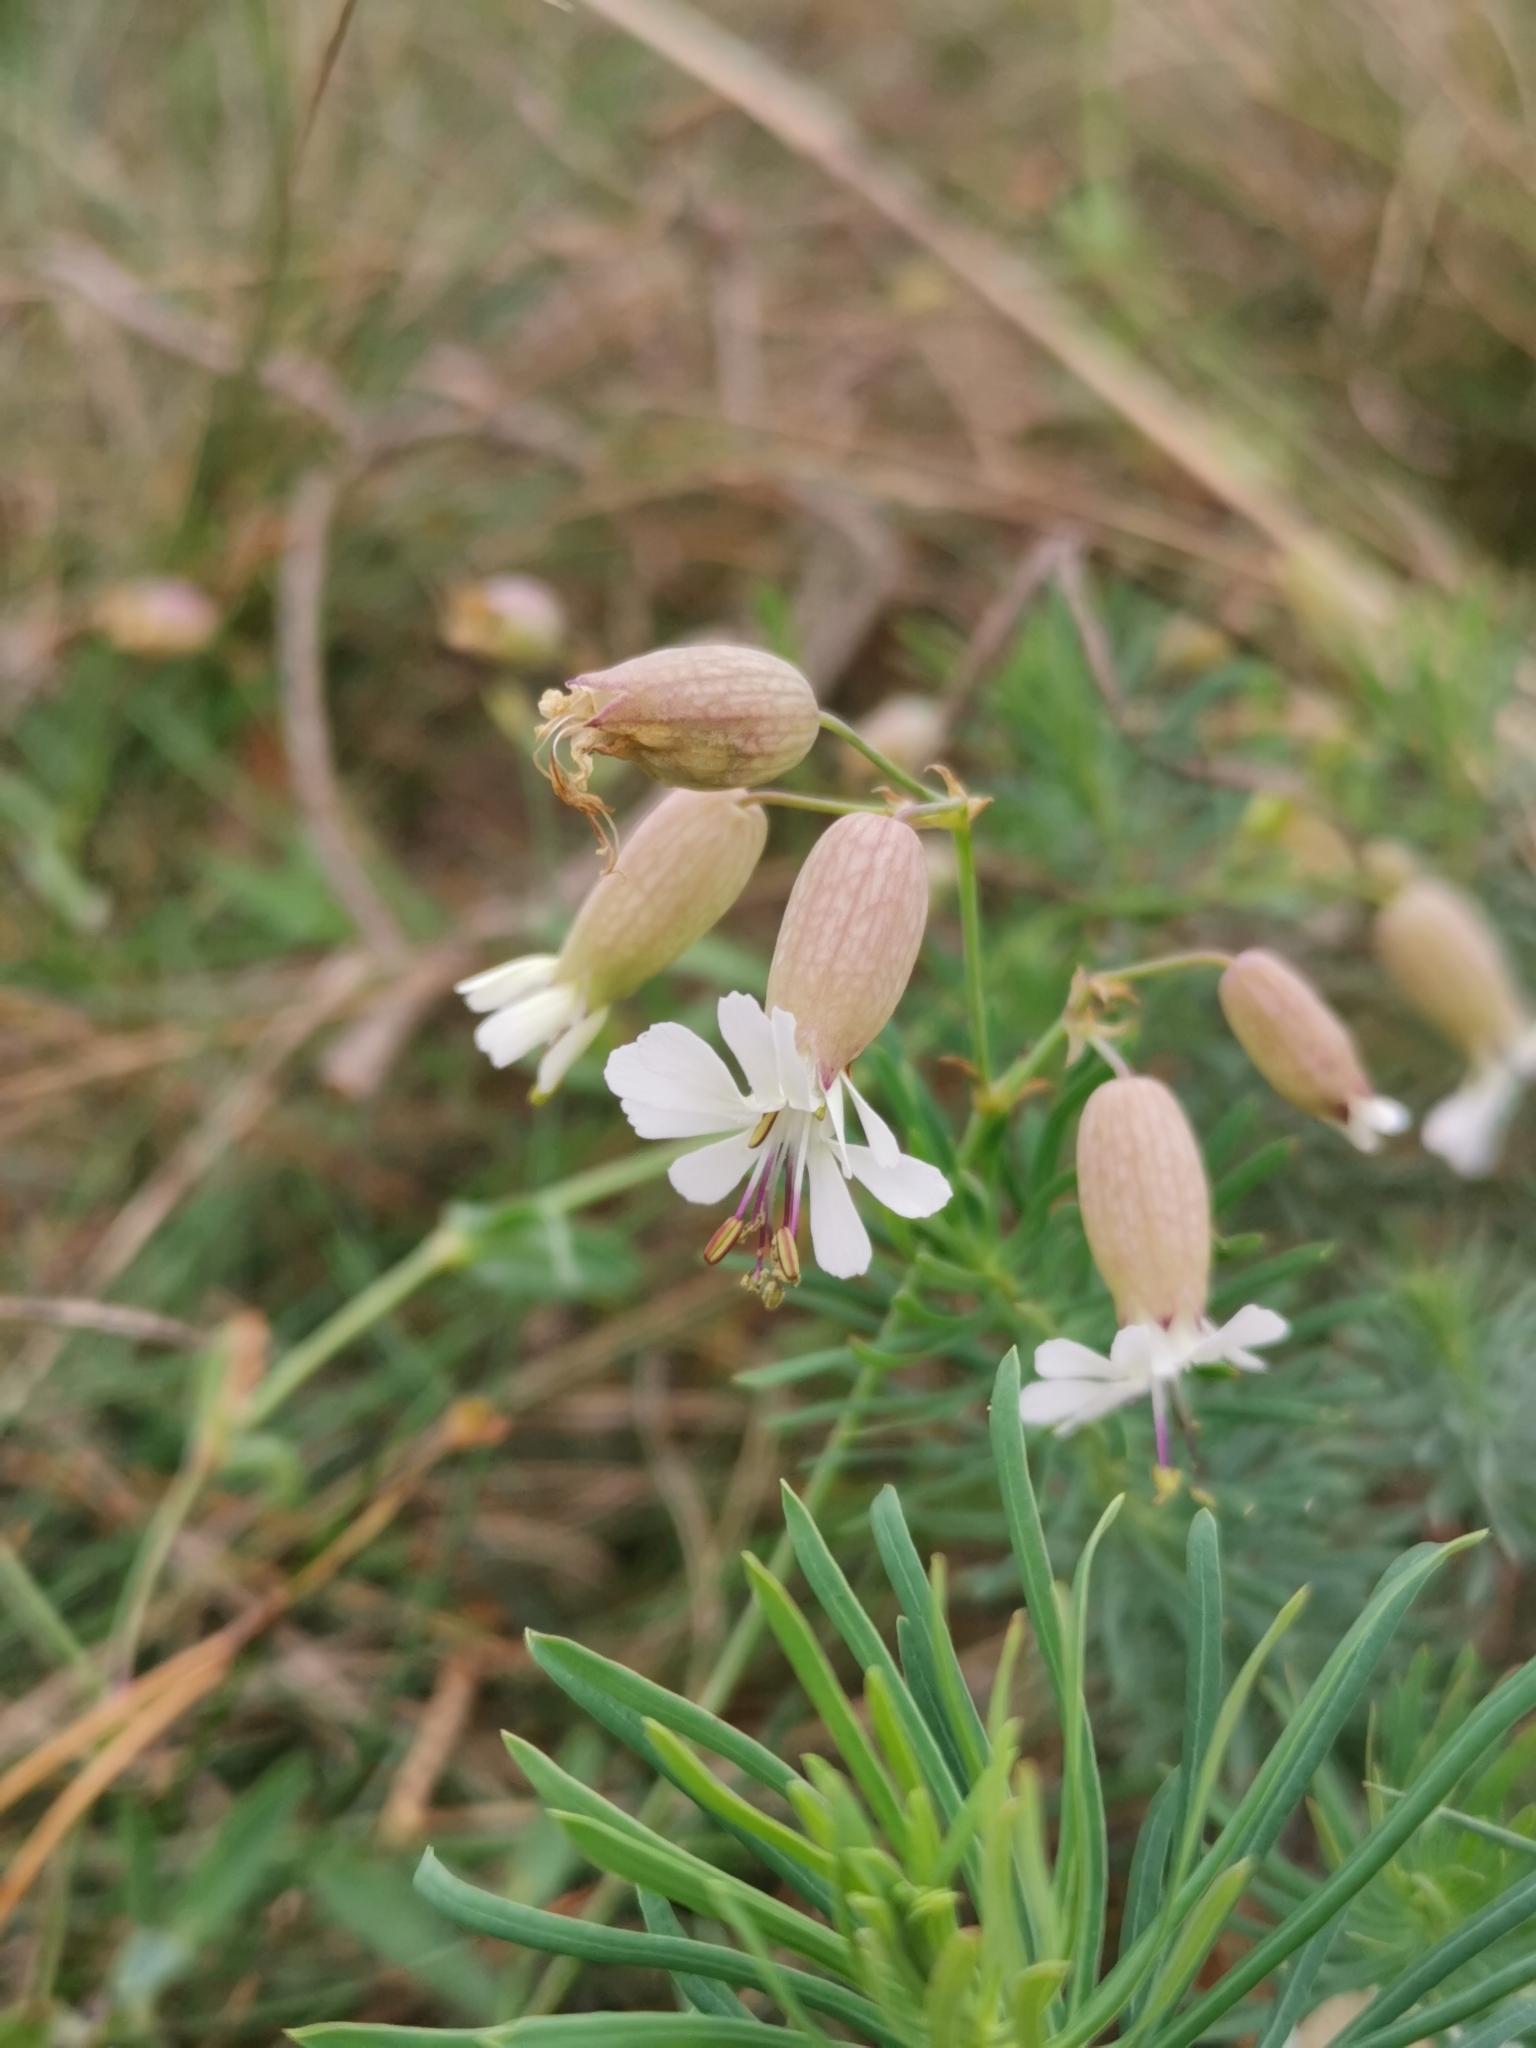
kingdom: Plantae
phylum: Tracheophyta
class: Magnoliopsida
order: Caryophyllales
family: Caryophyllaceae
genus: Silene
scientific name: Silene vulgaris
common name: Bladder campion
